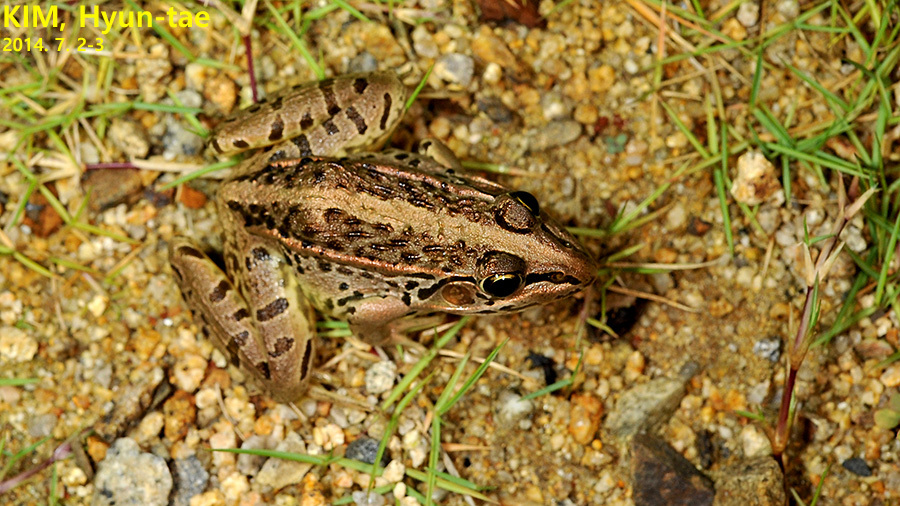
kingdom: Animalia
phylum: Chordata
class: Amphibia
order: Anura
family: Ranidae
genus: Pelophylax
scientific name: Pelophylax nigromaculatus
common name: Black-spotted pond frog
